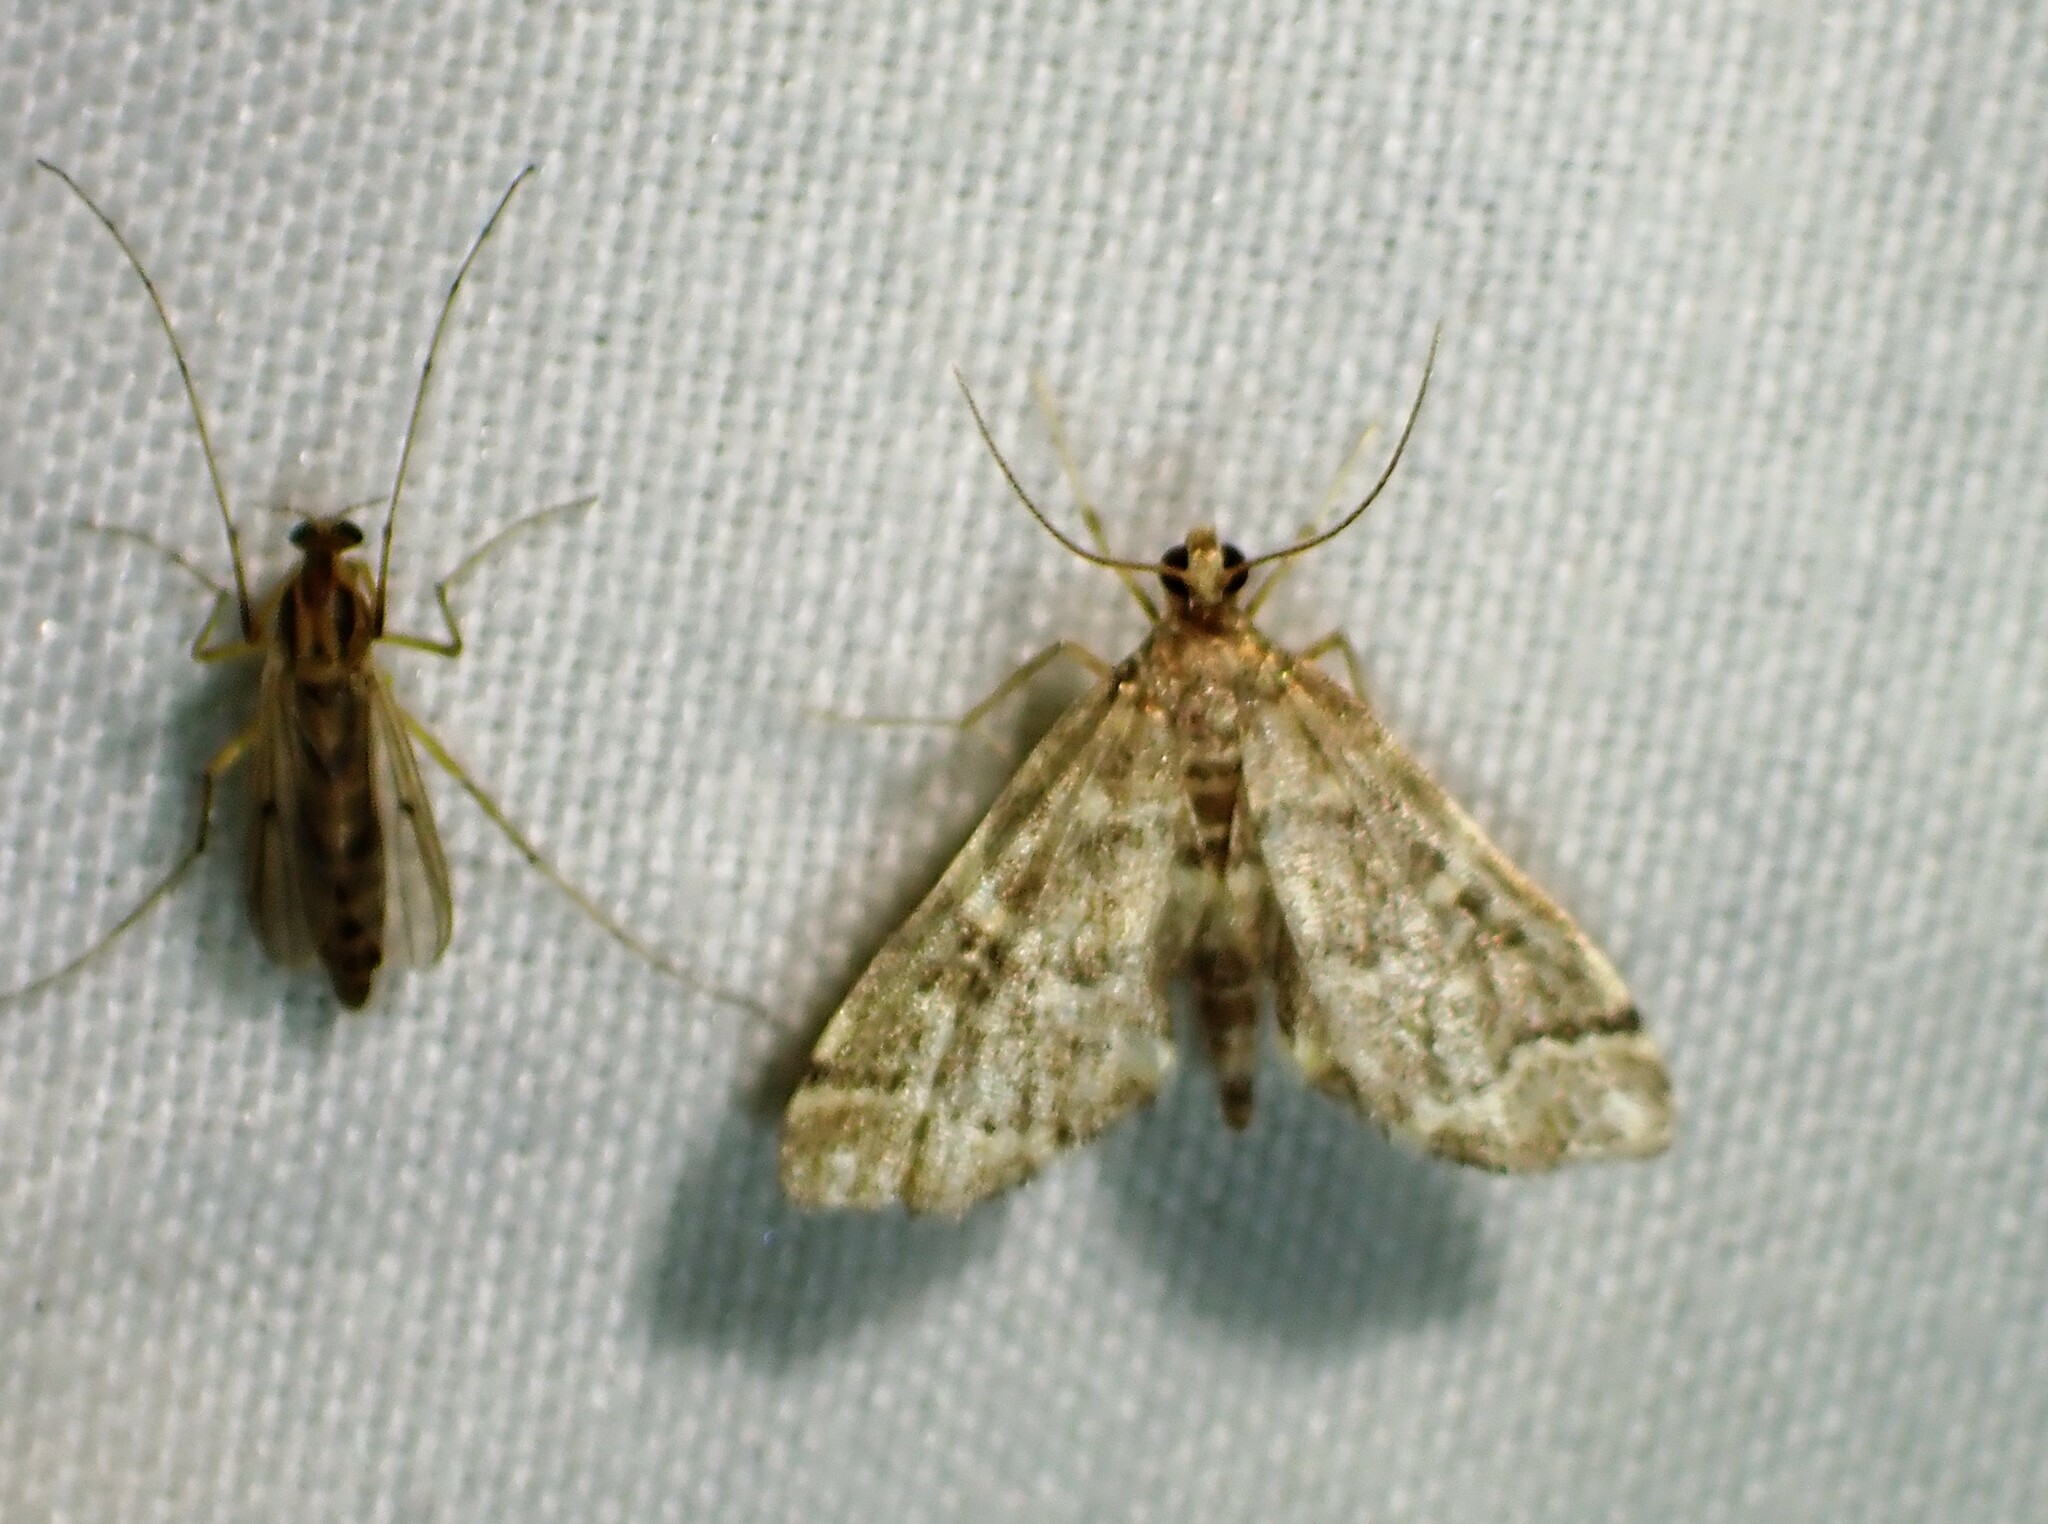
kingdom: Animalia
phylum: Arthropoda
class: Insecta
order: Lepidoptera
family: Crambidae
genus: Anageshna
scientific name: Anageshna primordialis
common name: Yellow-spotted webworm moth
